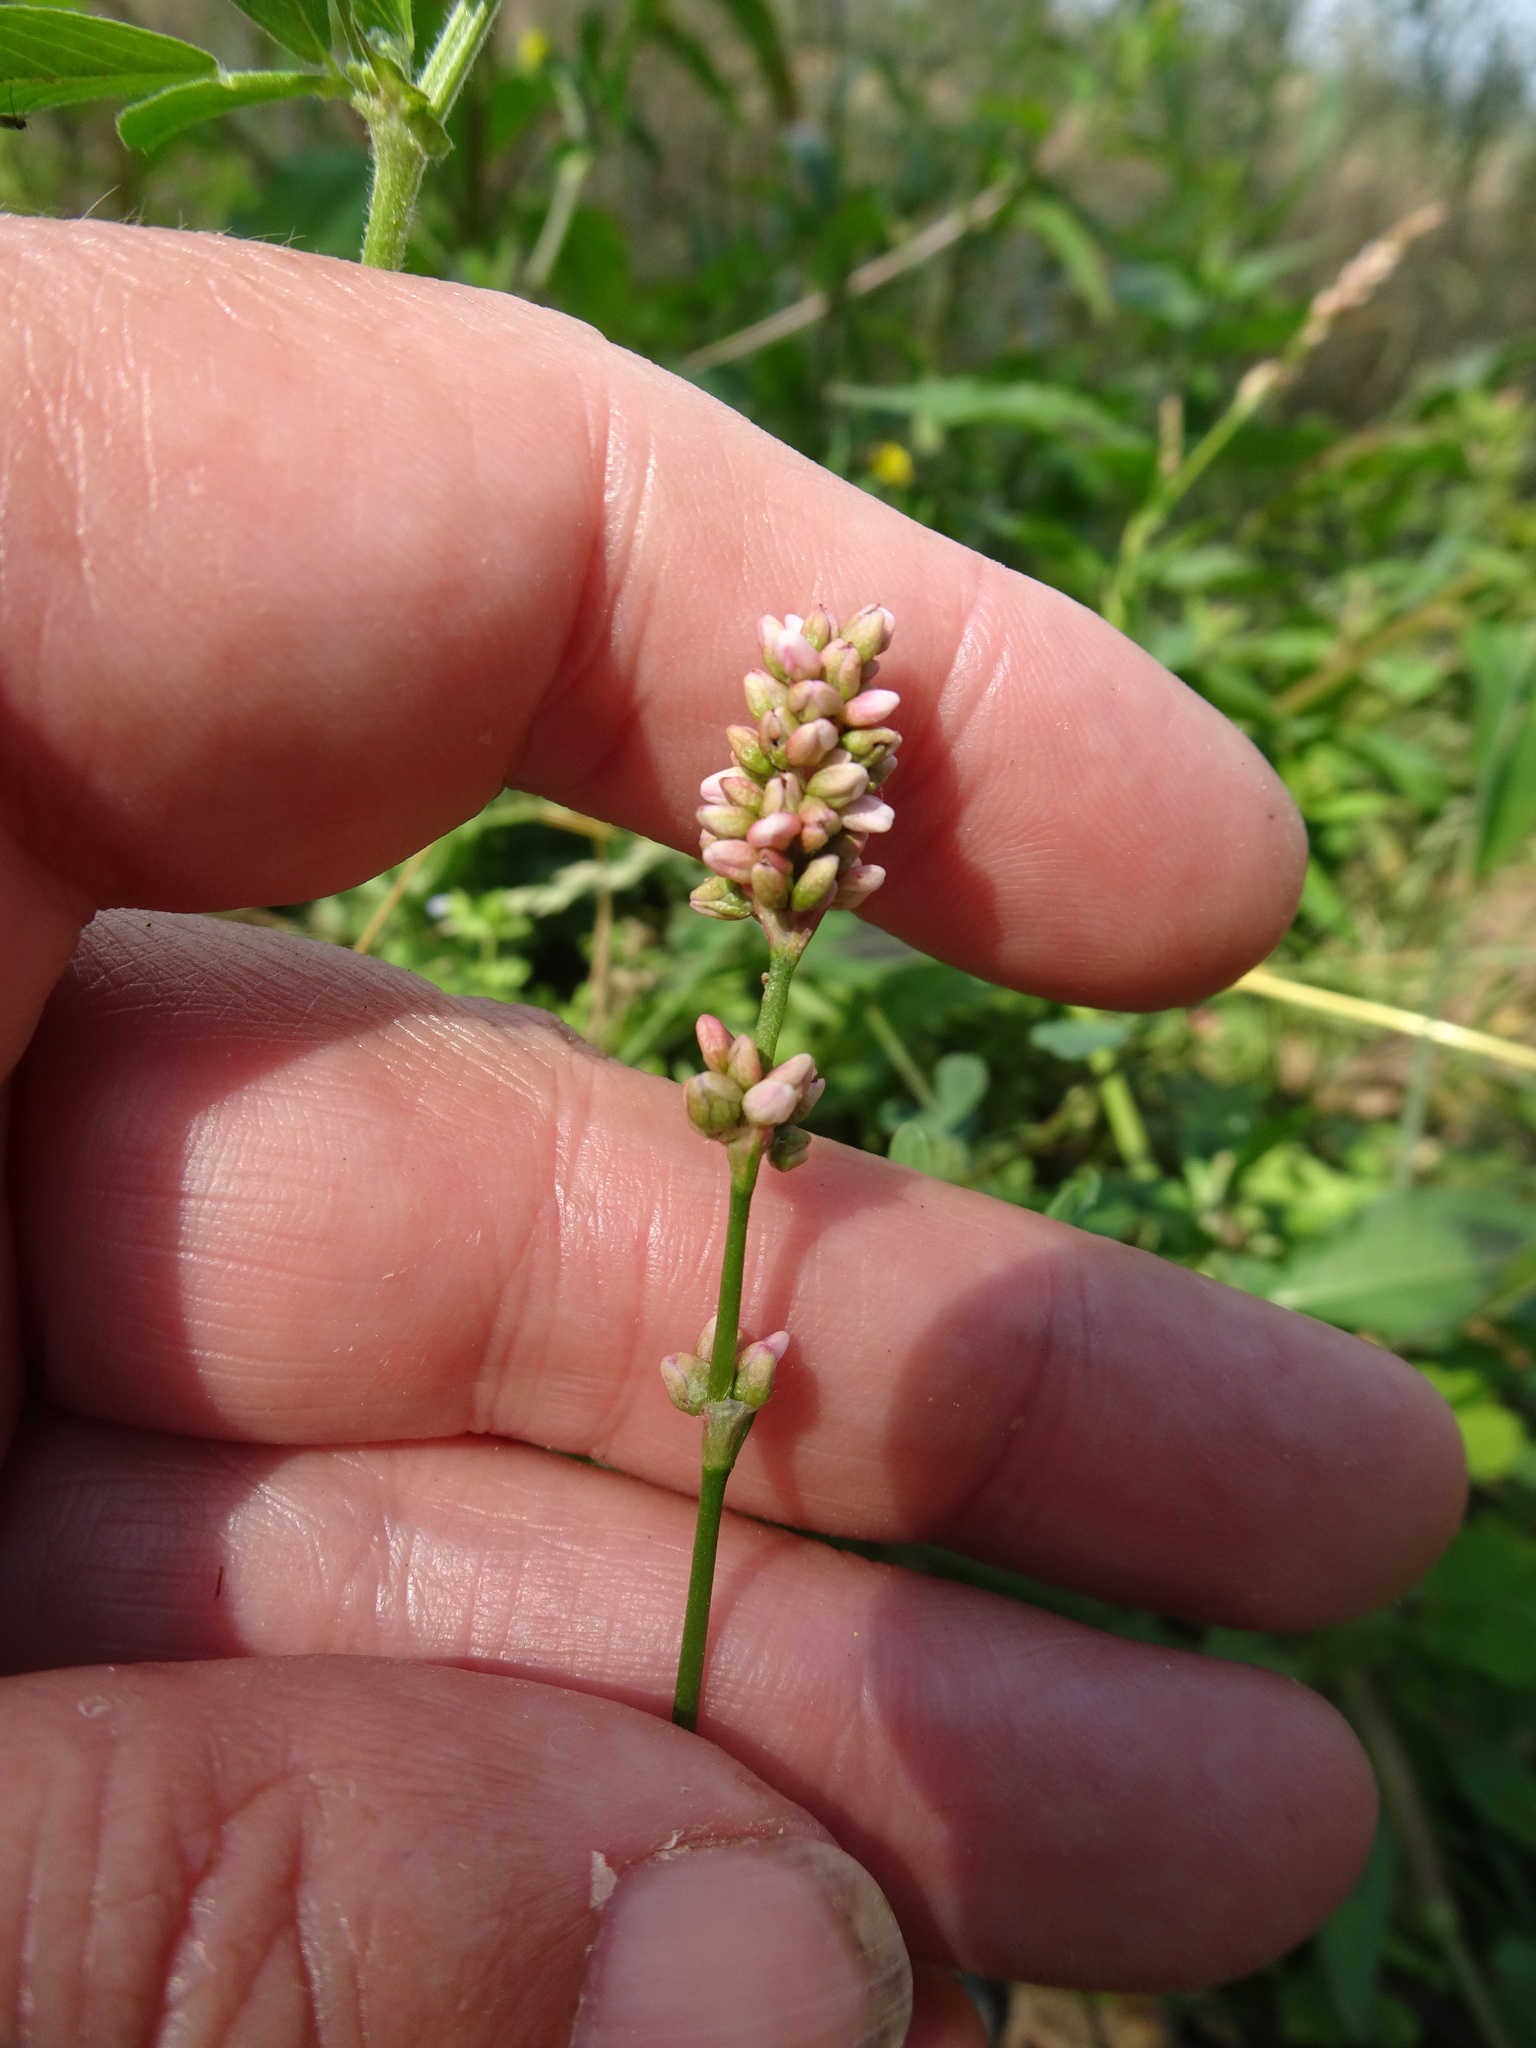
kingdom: Plantae
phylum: Tracheophyta
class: Magnoliopsida
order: Caryophyllales
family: Polygonaceae
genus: Persicaria
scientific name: Persicaria maculosa
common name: Redshank
